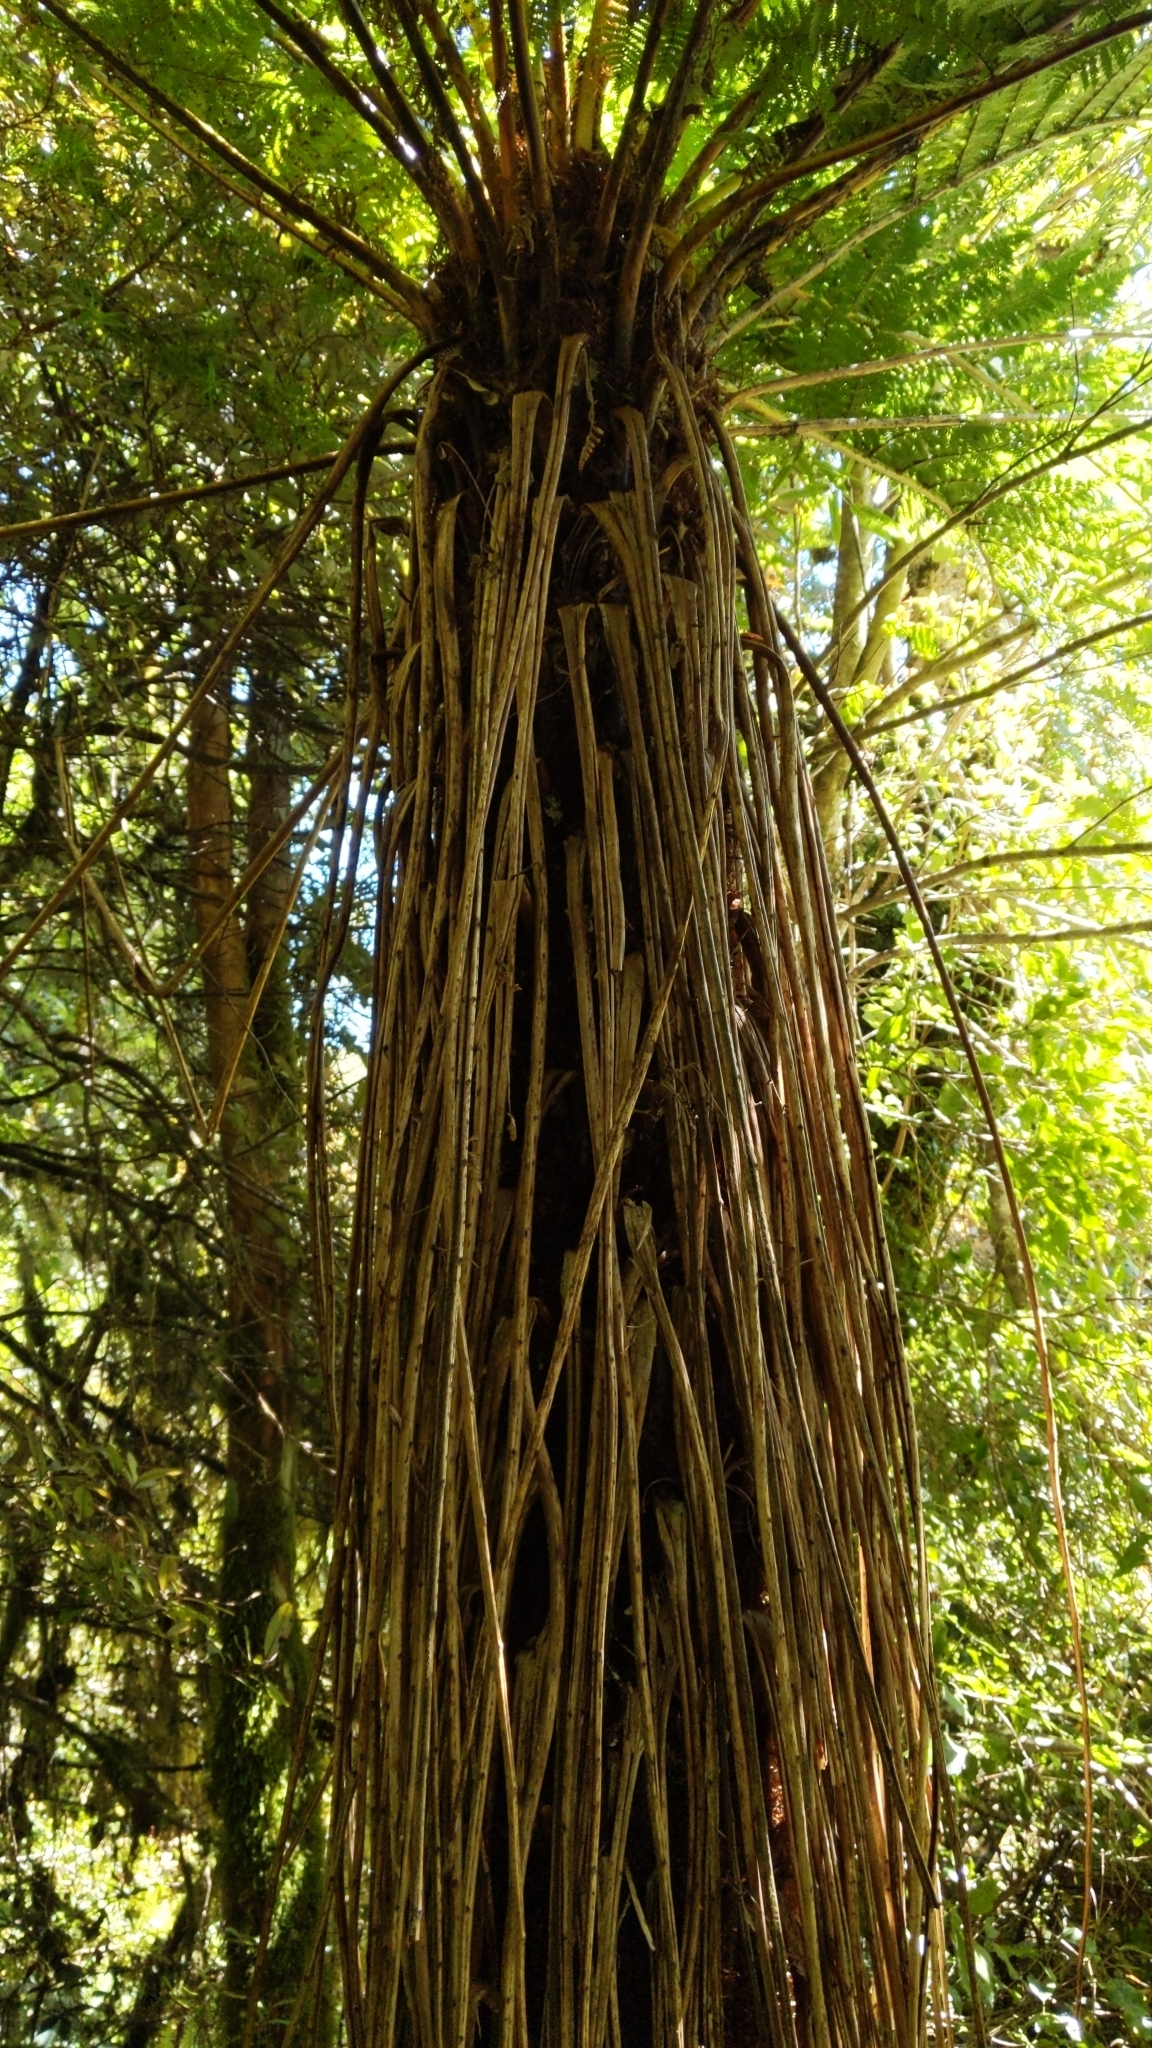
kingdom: Plantae
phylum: Tracheophyta
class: Polypodiopsida
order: Cyatheales
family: Cyatheaceae
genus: Alsophila
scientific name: Alsophila smithii
